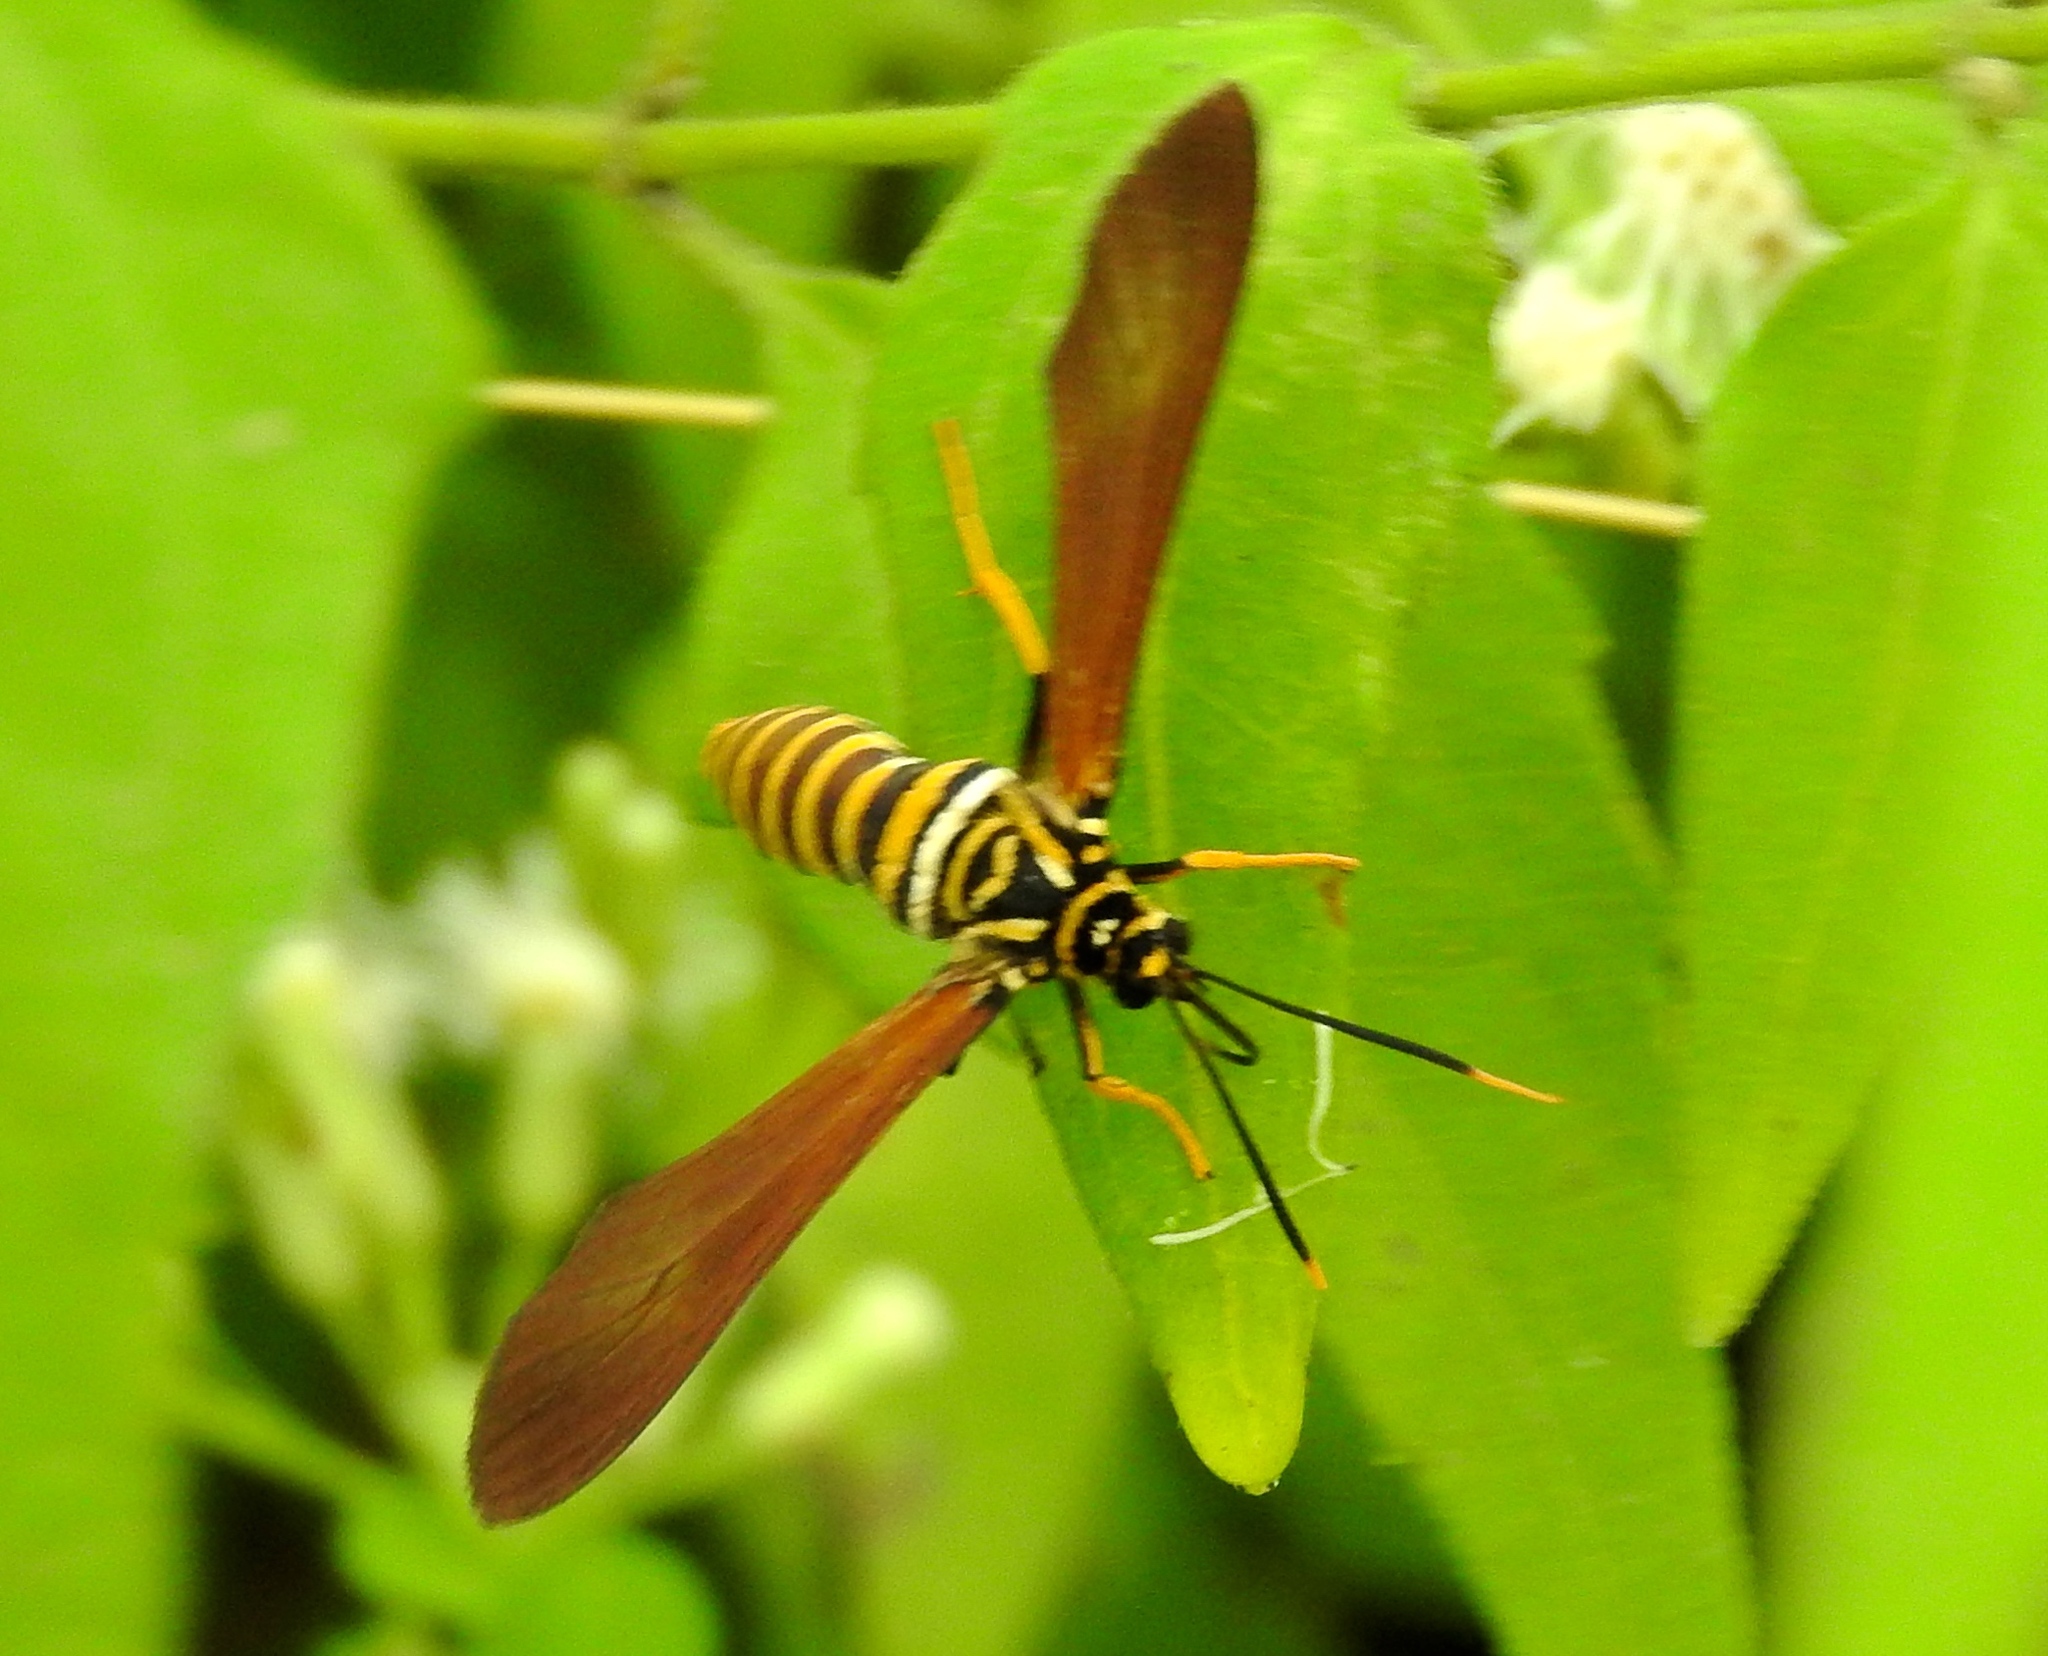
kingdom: Animalia
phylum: Arthropoda
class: Insecta
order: Lepidoptera
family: Erebidae
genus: Horama
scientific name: Horama panthalon
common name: Texas wasp moth
